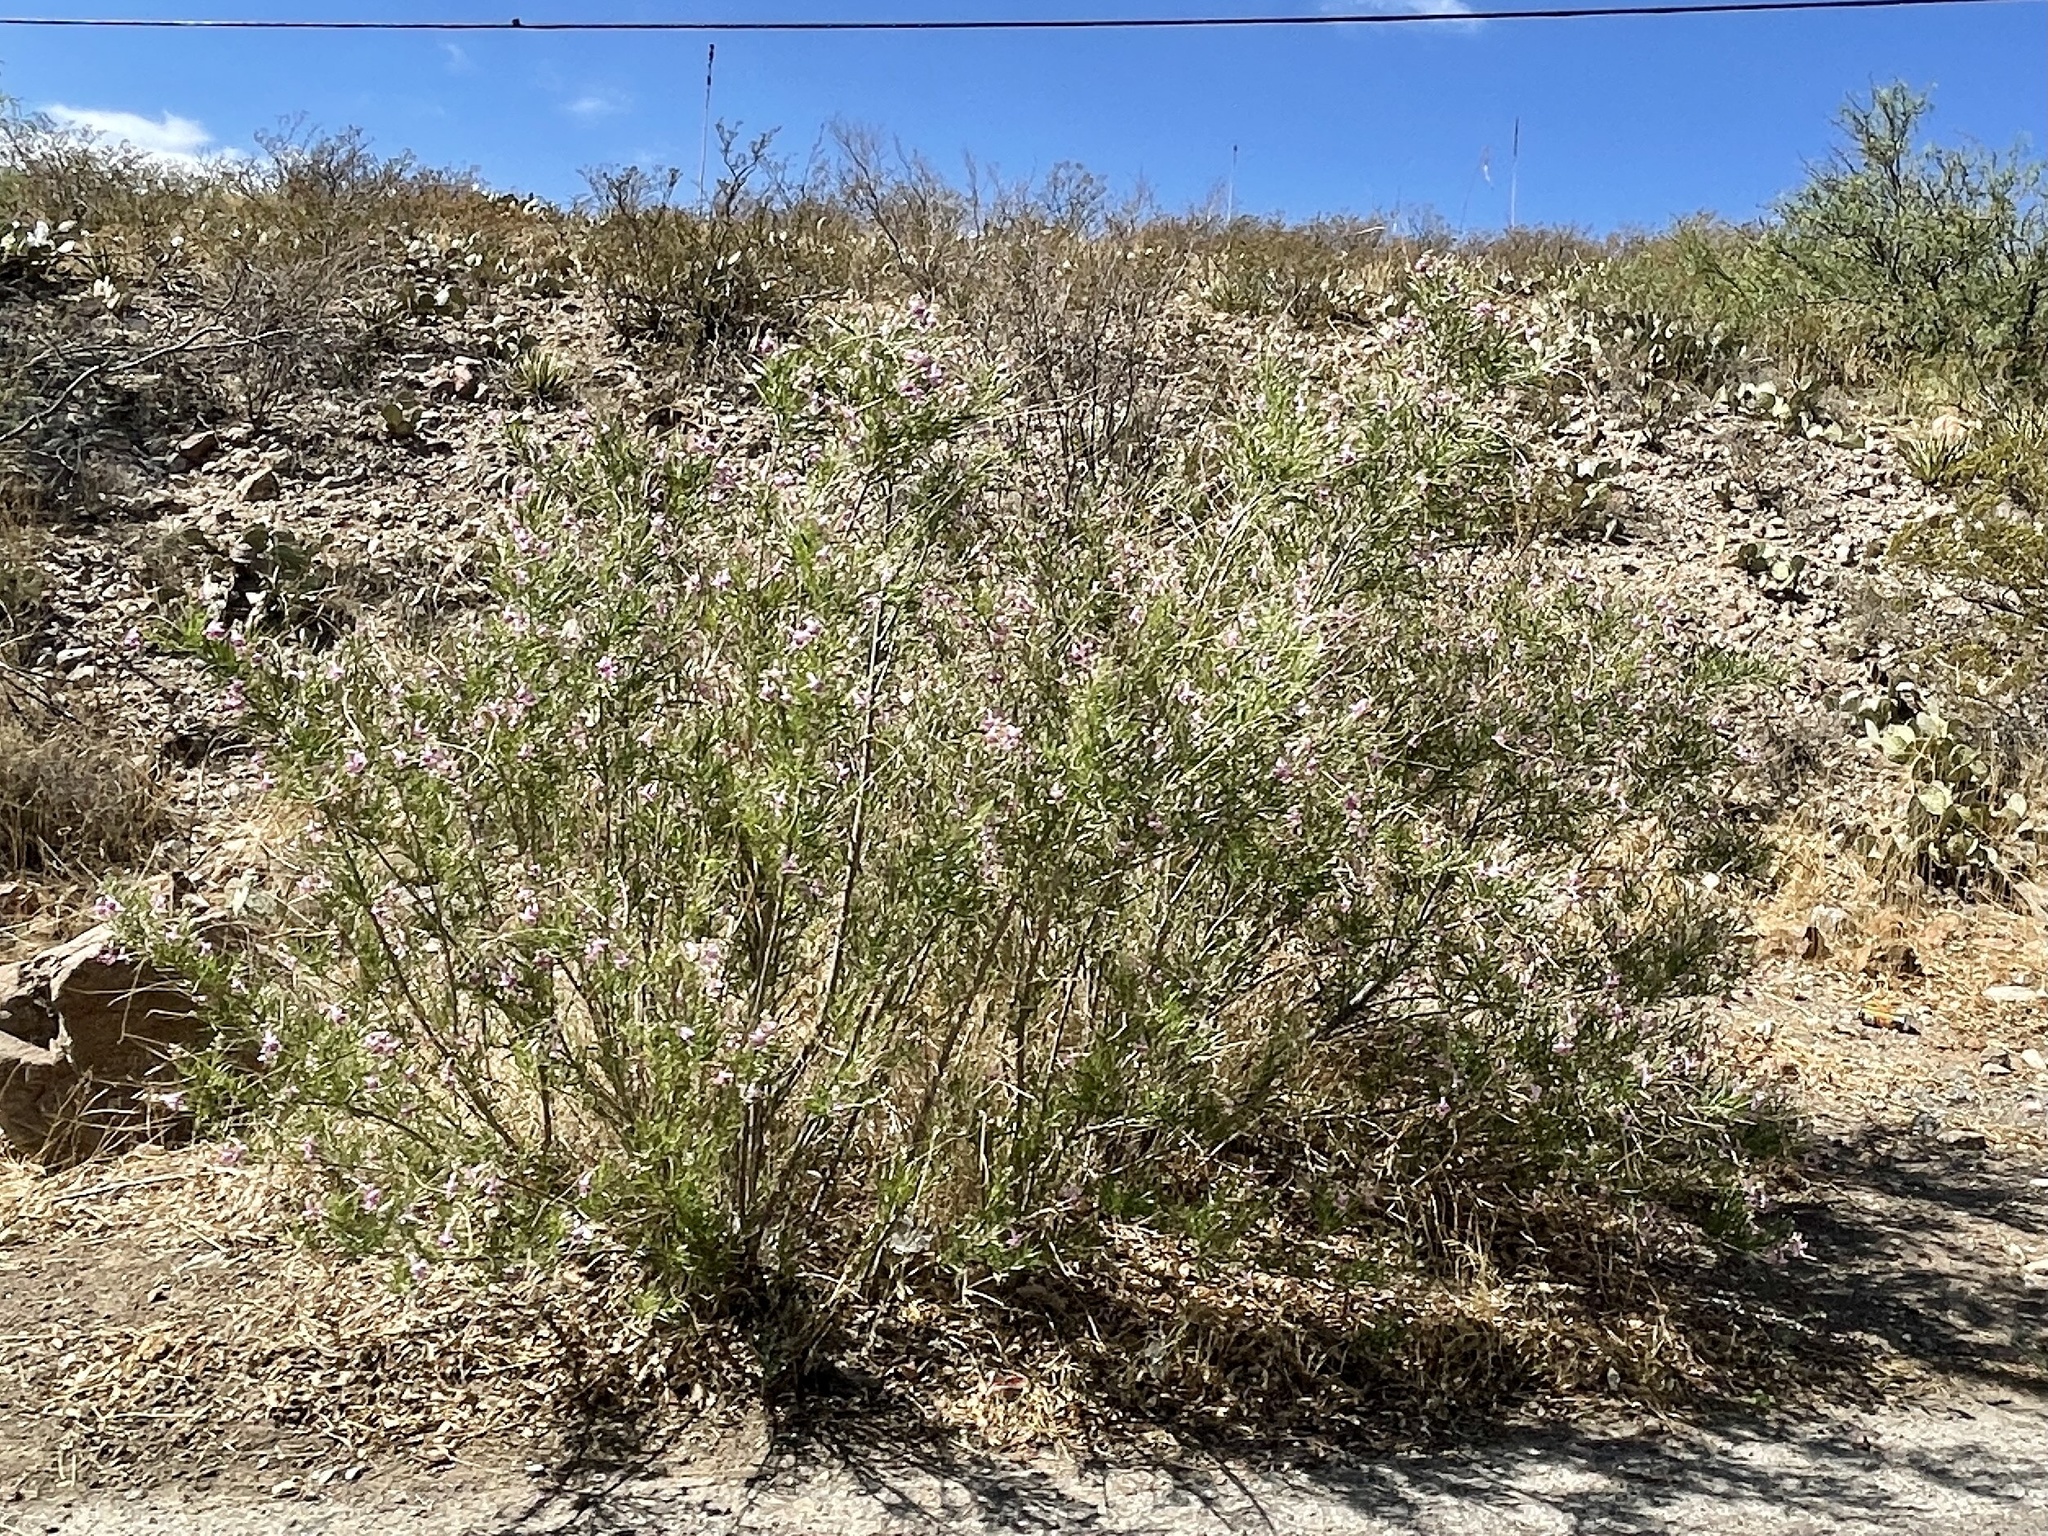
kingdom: Plantae
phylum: Tracheophyta
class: Magnoliopsida
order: Lamiales
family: Bignoniaceae
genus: Chilopsis
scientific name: Chilopsis linearis
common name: Desert-willow
